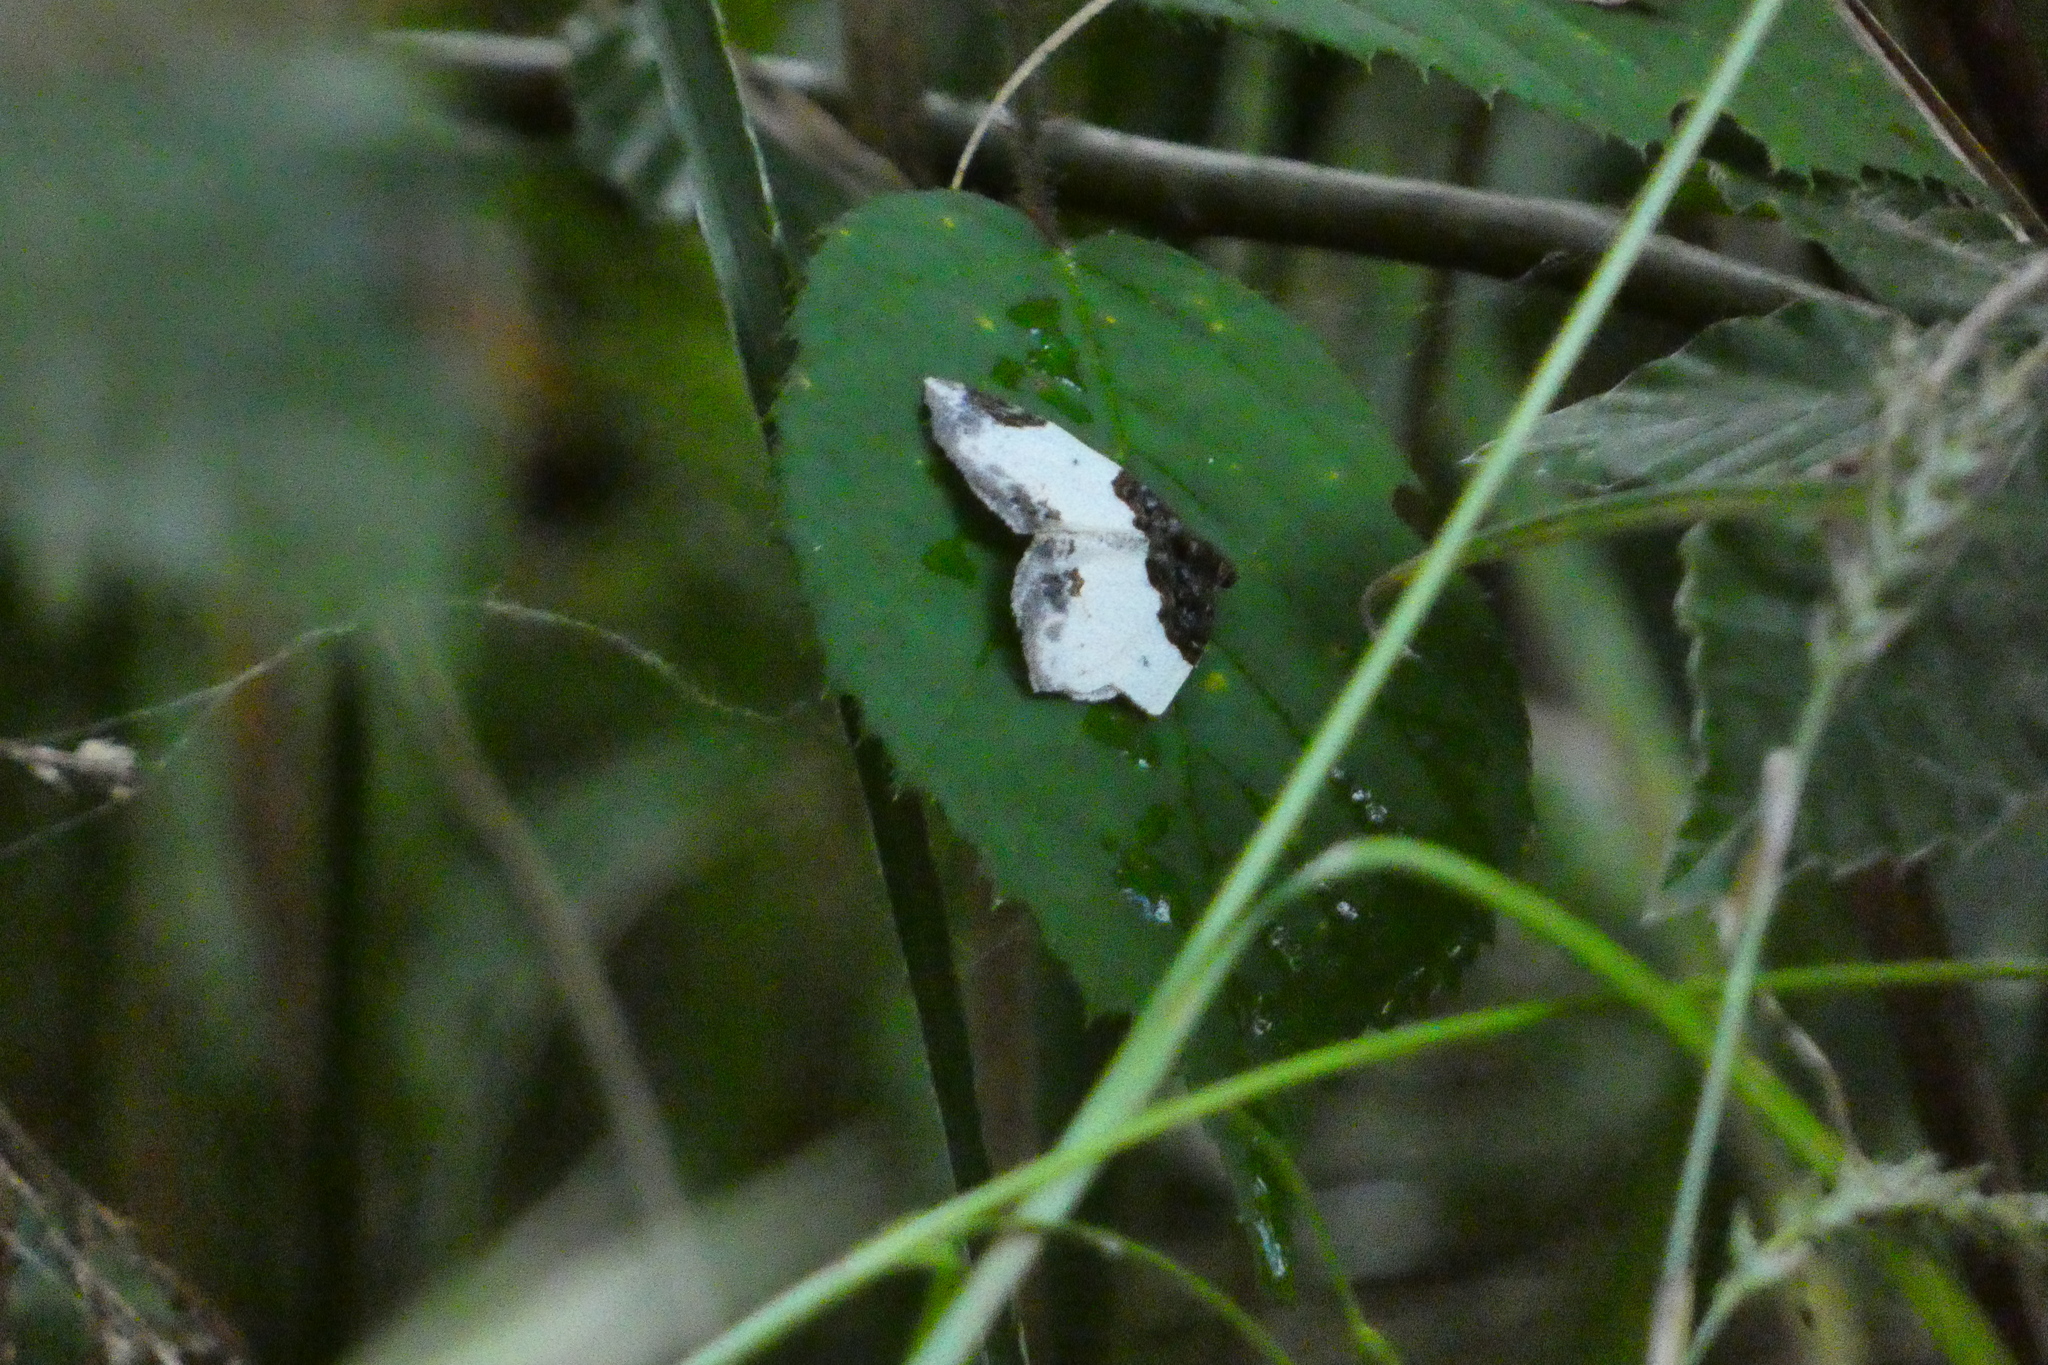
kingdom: Animalia
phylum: Arthropoda
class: Insecta
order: Lepidoptera
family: Geometridae
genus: Mesoleuca
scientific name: Mesoleuca albicillata
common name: Beautiful carpet
